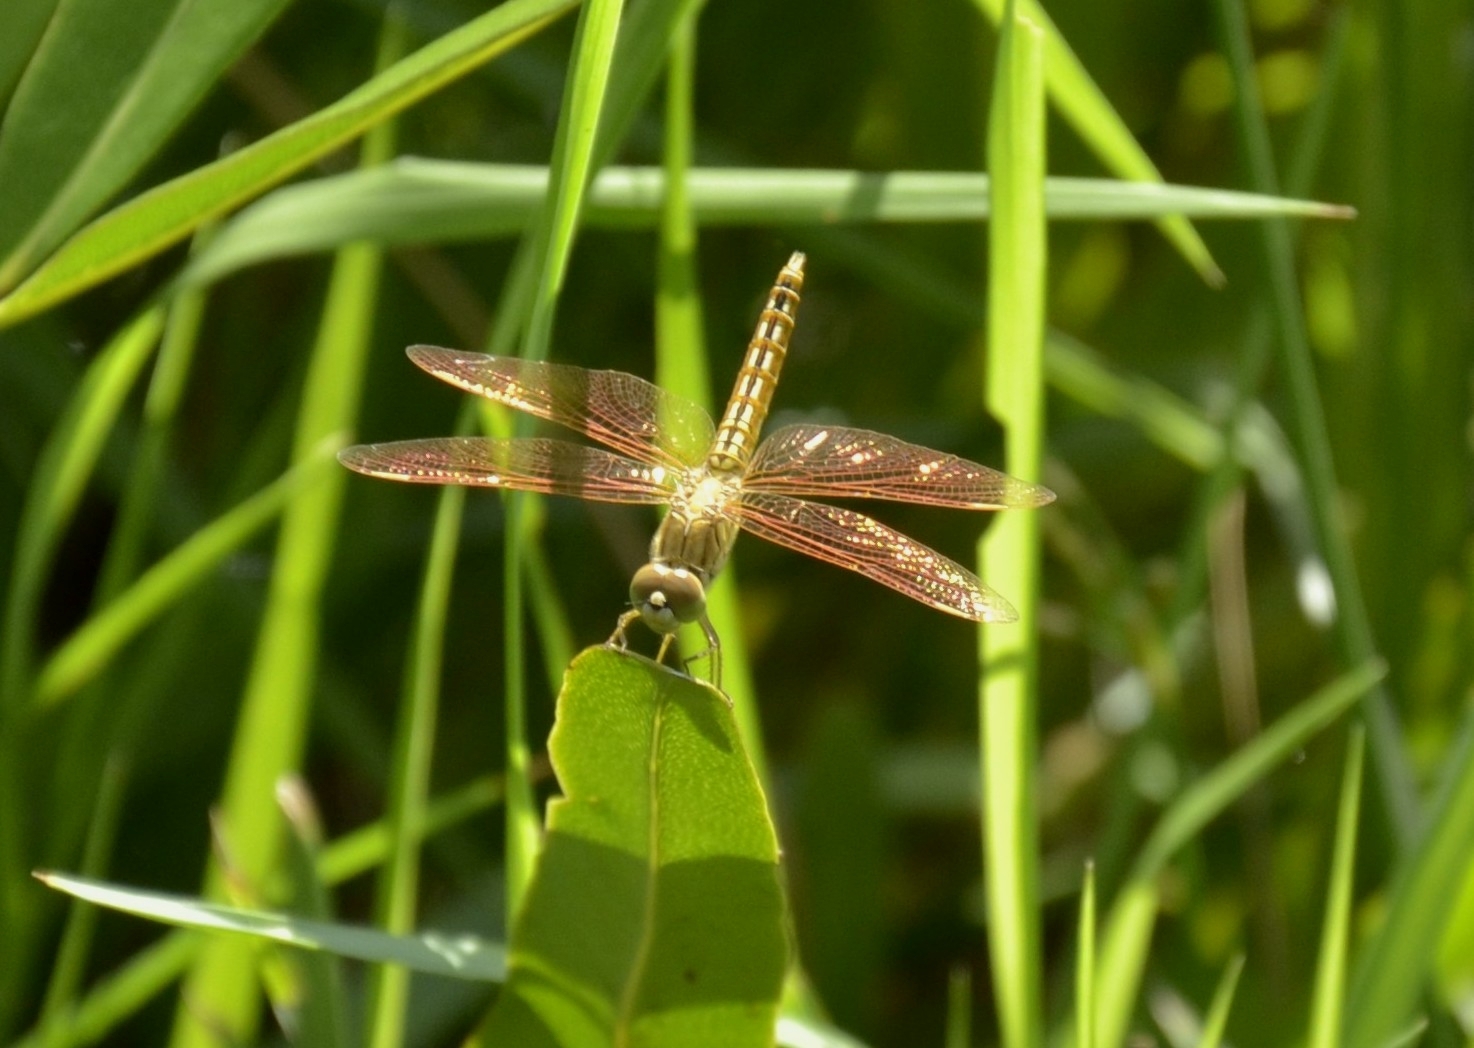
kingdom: Animalia
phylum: Arthropoda
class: Insecta
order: Odonata
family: Libellulidae
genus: Brachythemis
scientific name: Brachythemis contaminata
